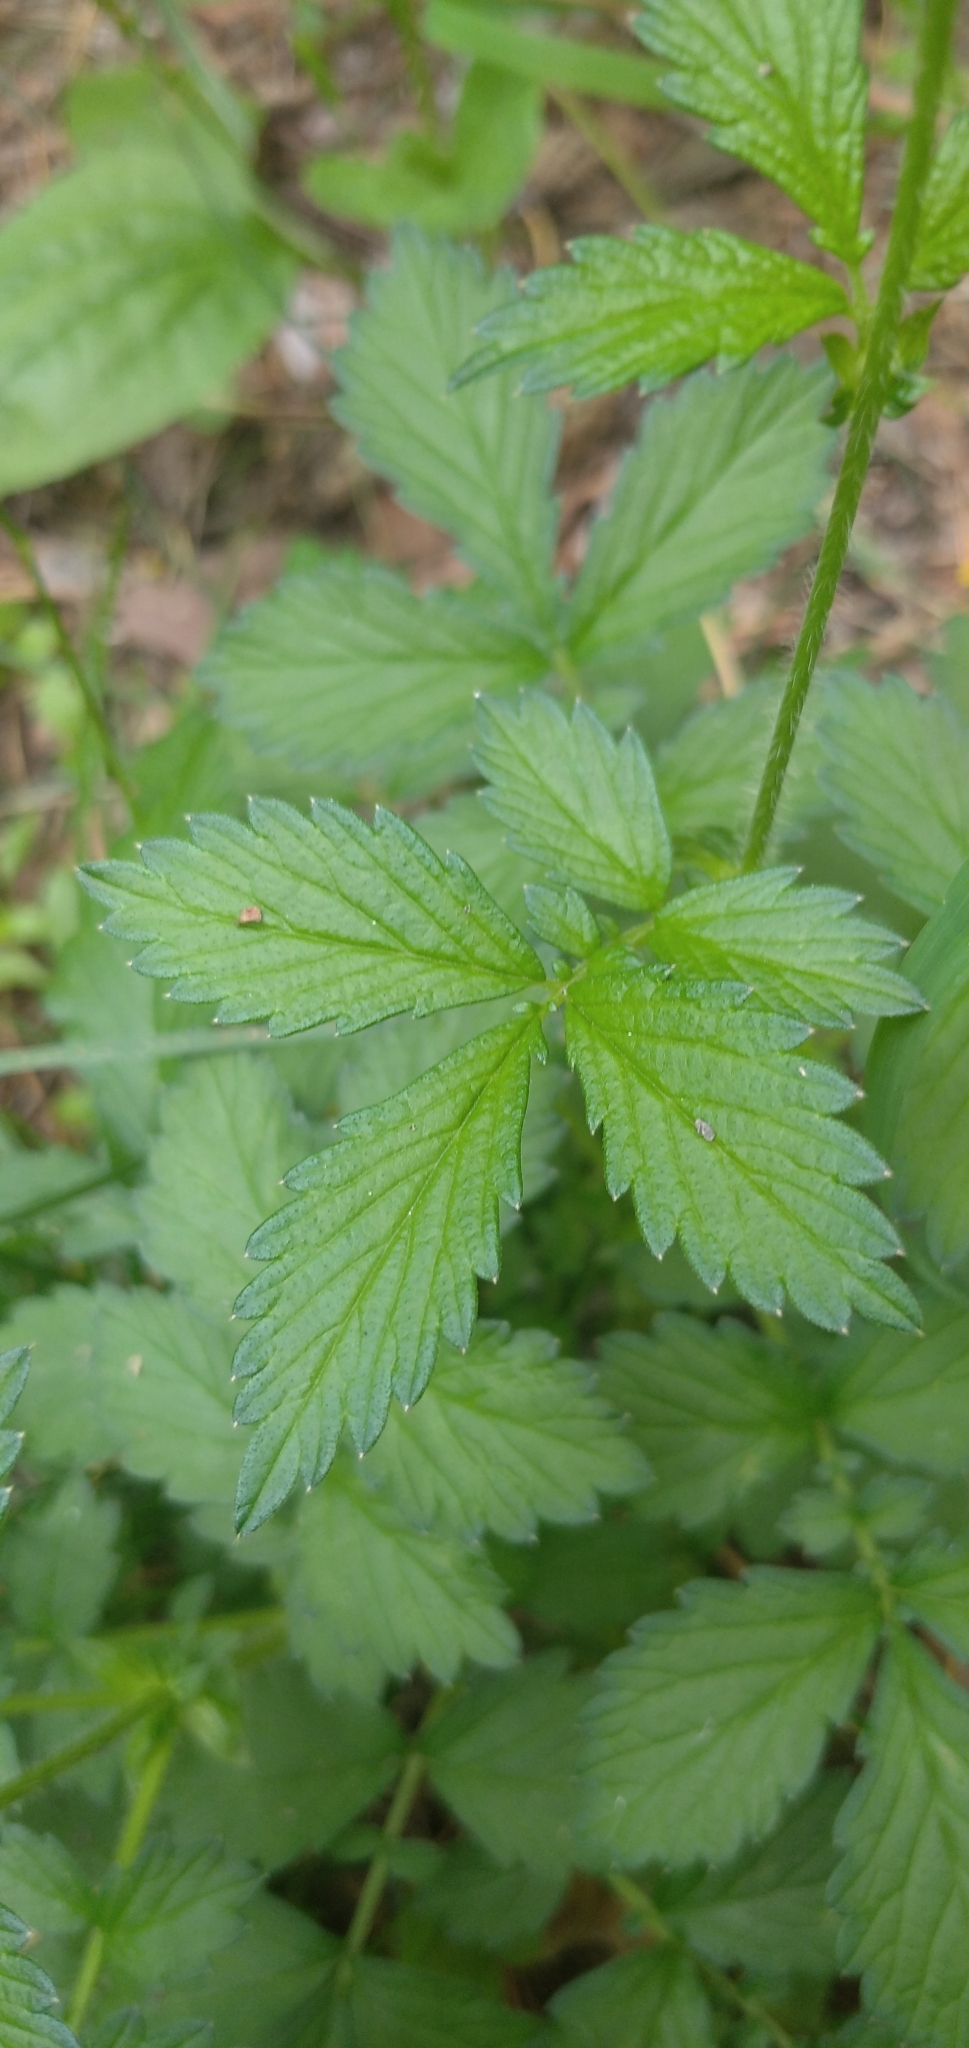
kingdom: Plantae
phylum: Tracheophyta
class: Magnoliopsida
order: Rosales
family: Rosaceae
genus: Agrimonia
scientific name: Agrimonia pilosa
